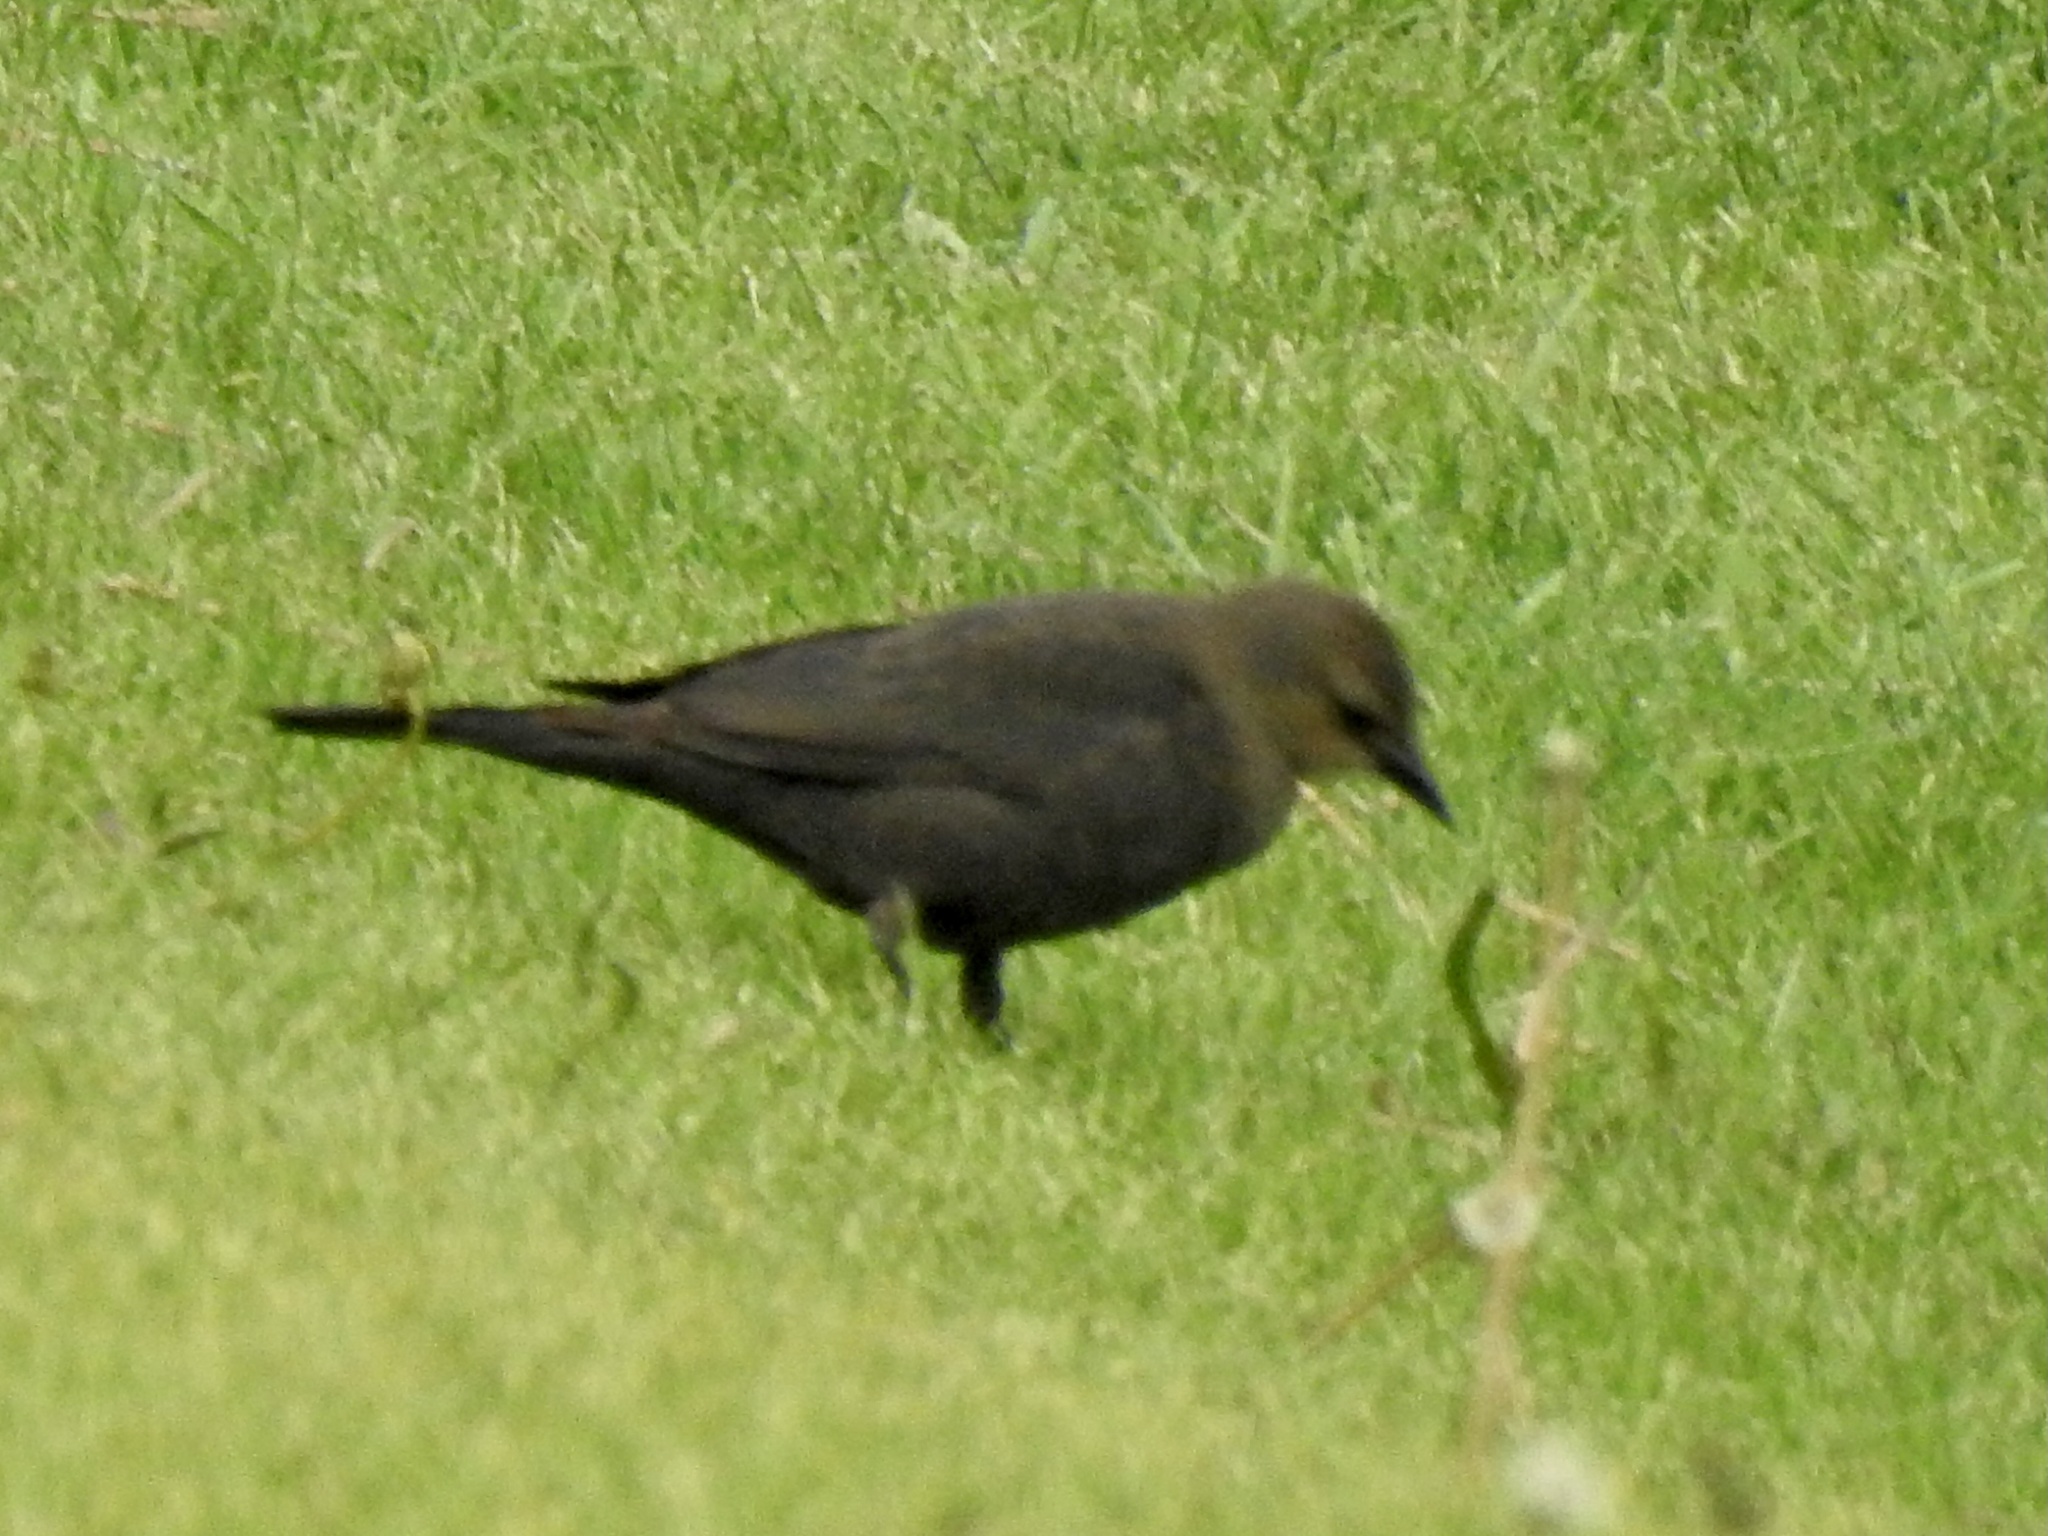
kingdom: Animalia
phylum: Chordata
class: Aves
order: Passeriformes
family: Icteridae
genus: Euphagus
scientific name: Euphagus cyanocephalus
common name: Brewer's blackbird
